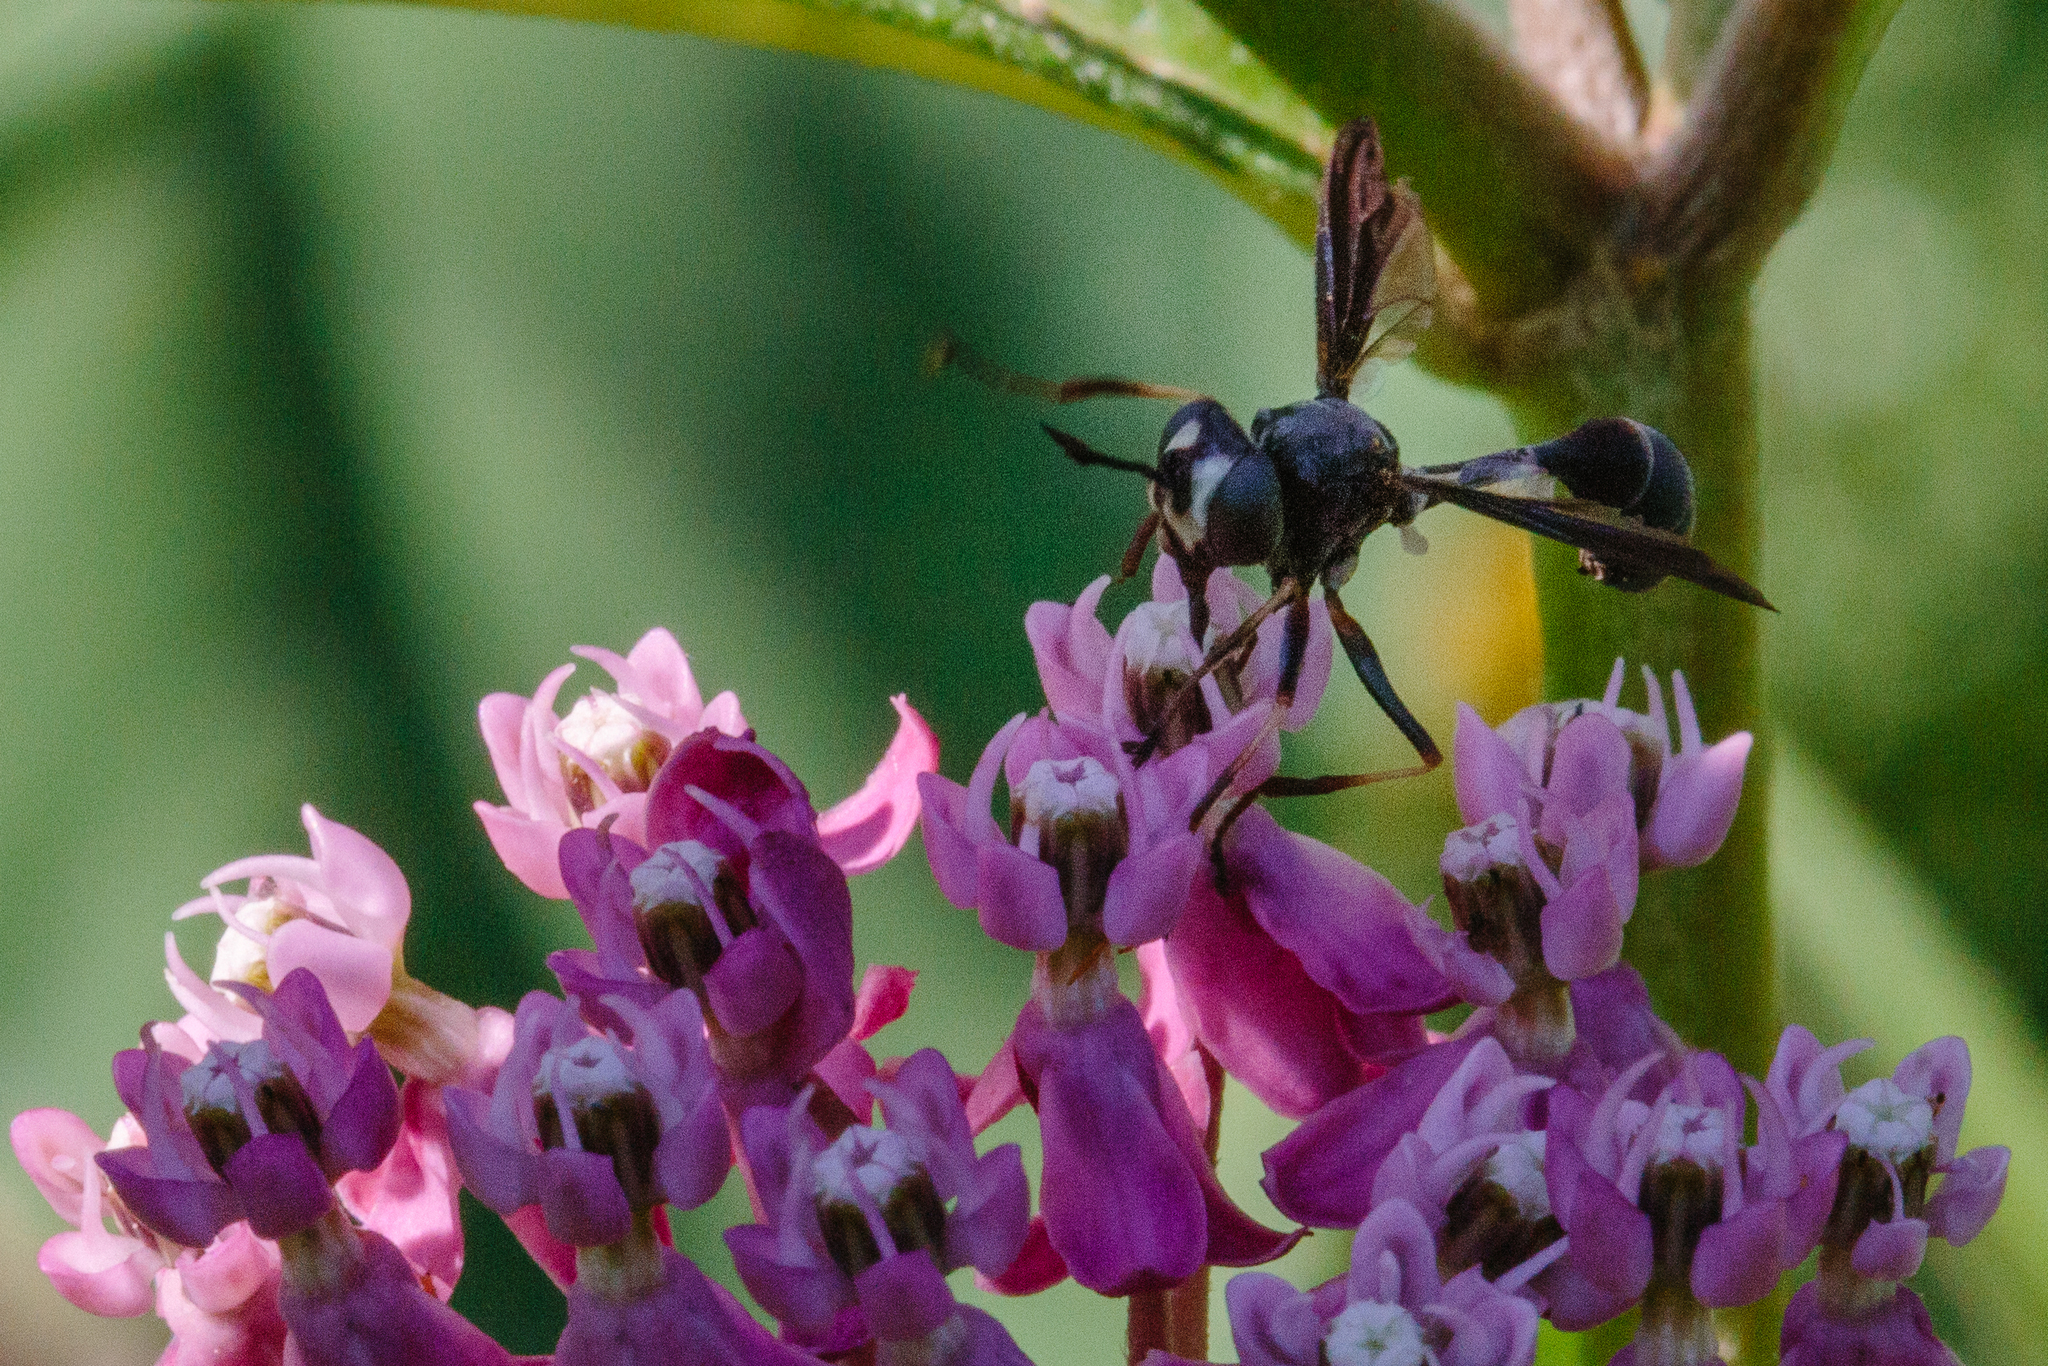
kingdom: Animalia
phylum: Arthropoda
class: Insecta
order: Diptera
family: Conopidae
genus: Physocephala
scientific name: Physocephala tibialis
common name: Common eastern physocephala
